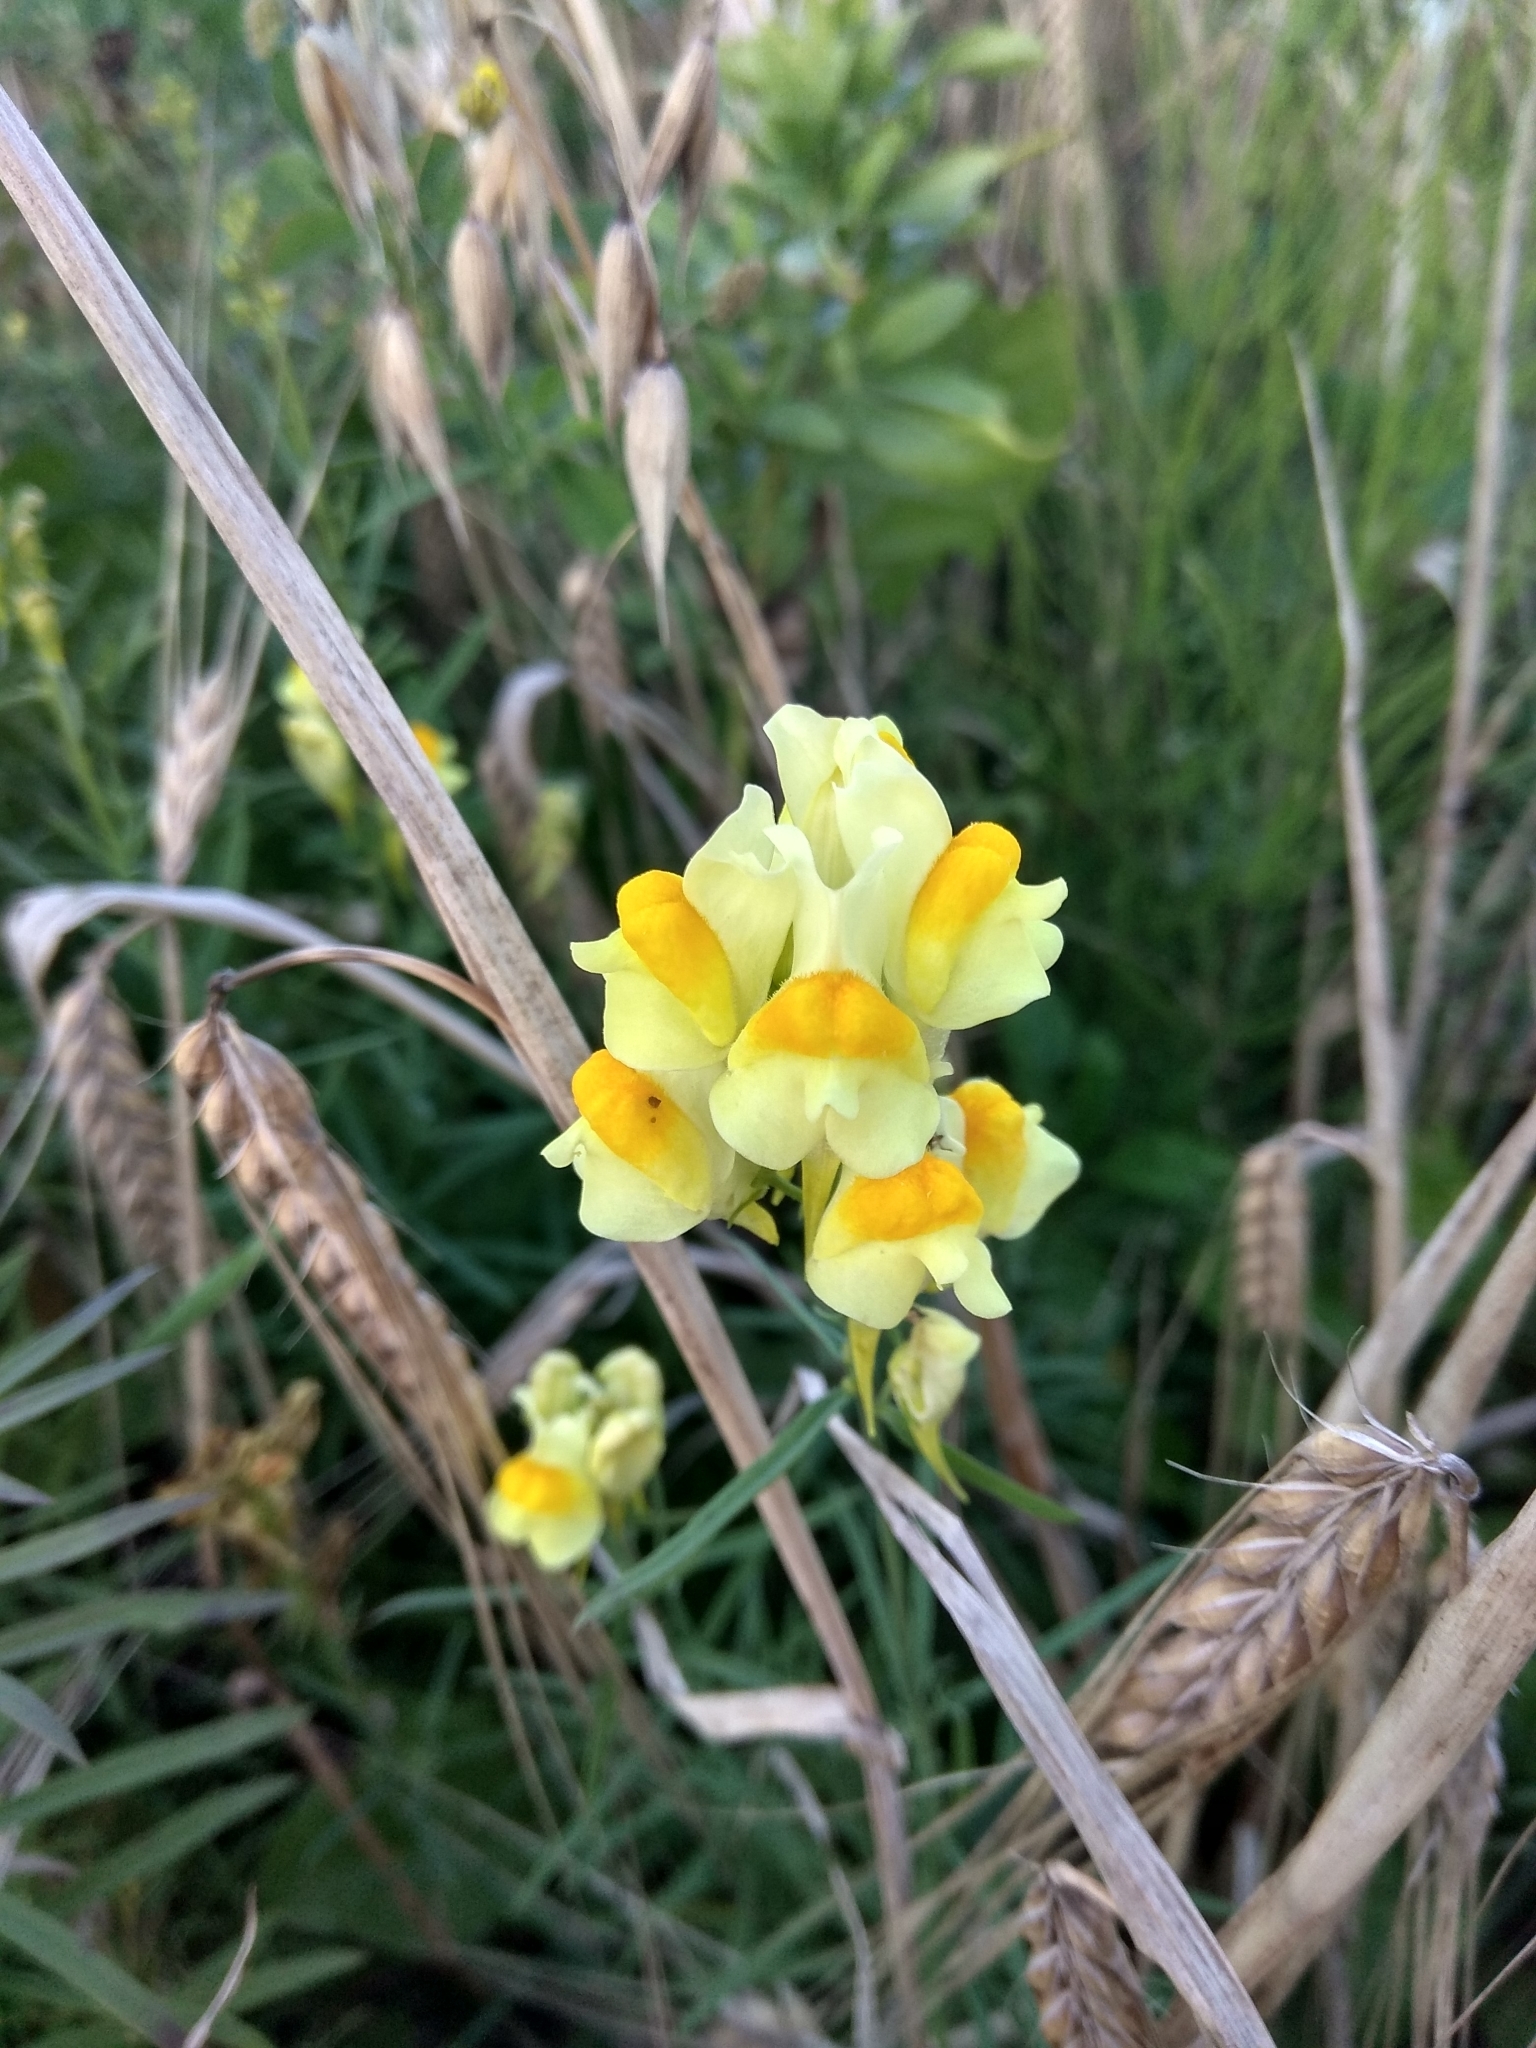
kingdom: Plantae
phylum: Tracheophyta
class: Magnoliopsida
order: Lamiales
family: Plantaginaceae
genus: Linaria
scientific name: Linaria vulgaris
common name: Butter and eggs
